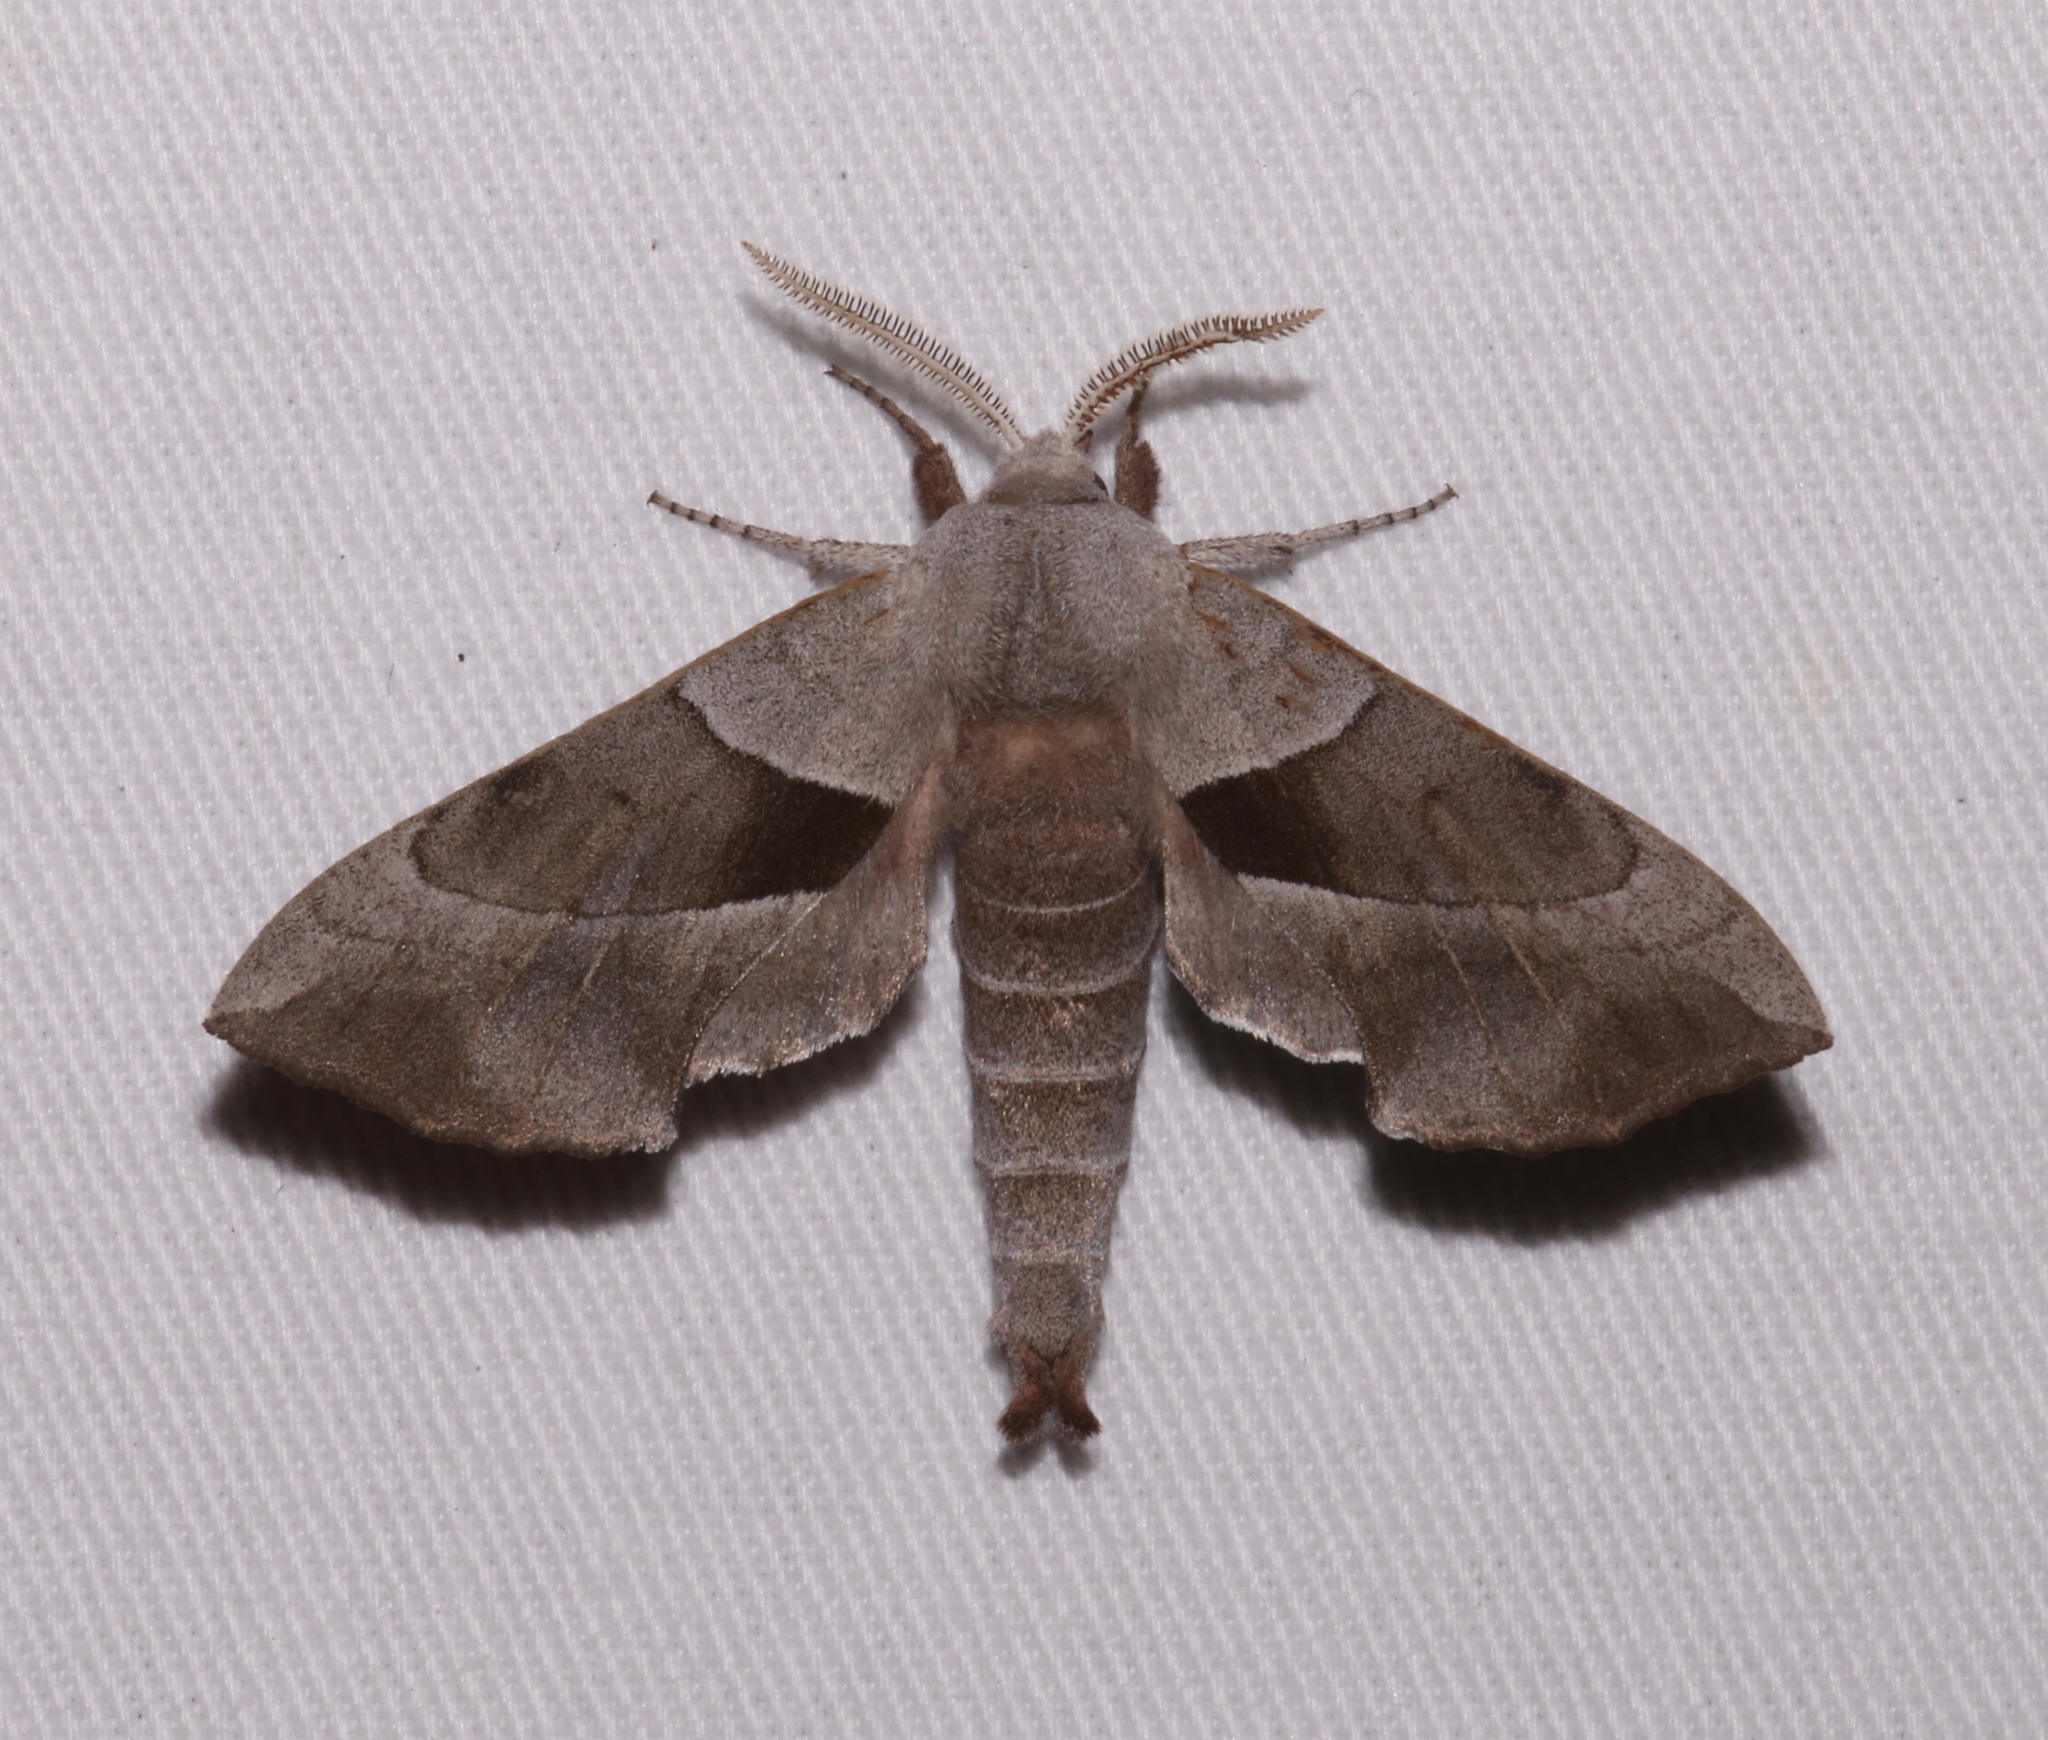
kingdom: Animalia
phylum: Arthropoda
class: Insecta
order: Lepidoptera
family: Sphingidae
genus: Amorpha
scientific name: Amorpha juglandis
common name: Walnut sphinx
